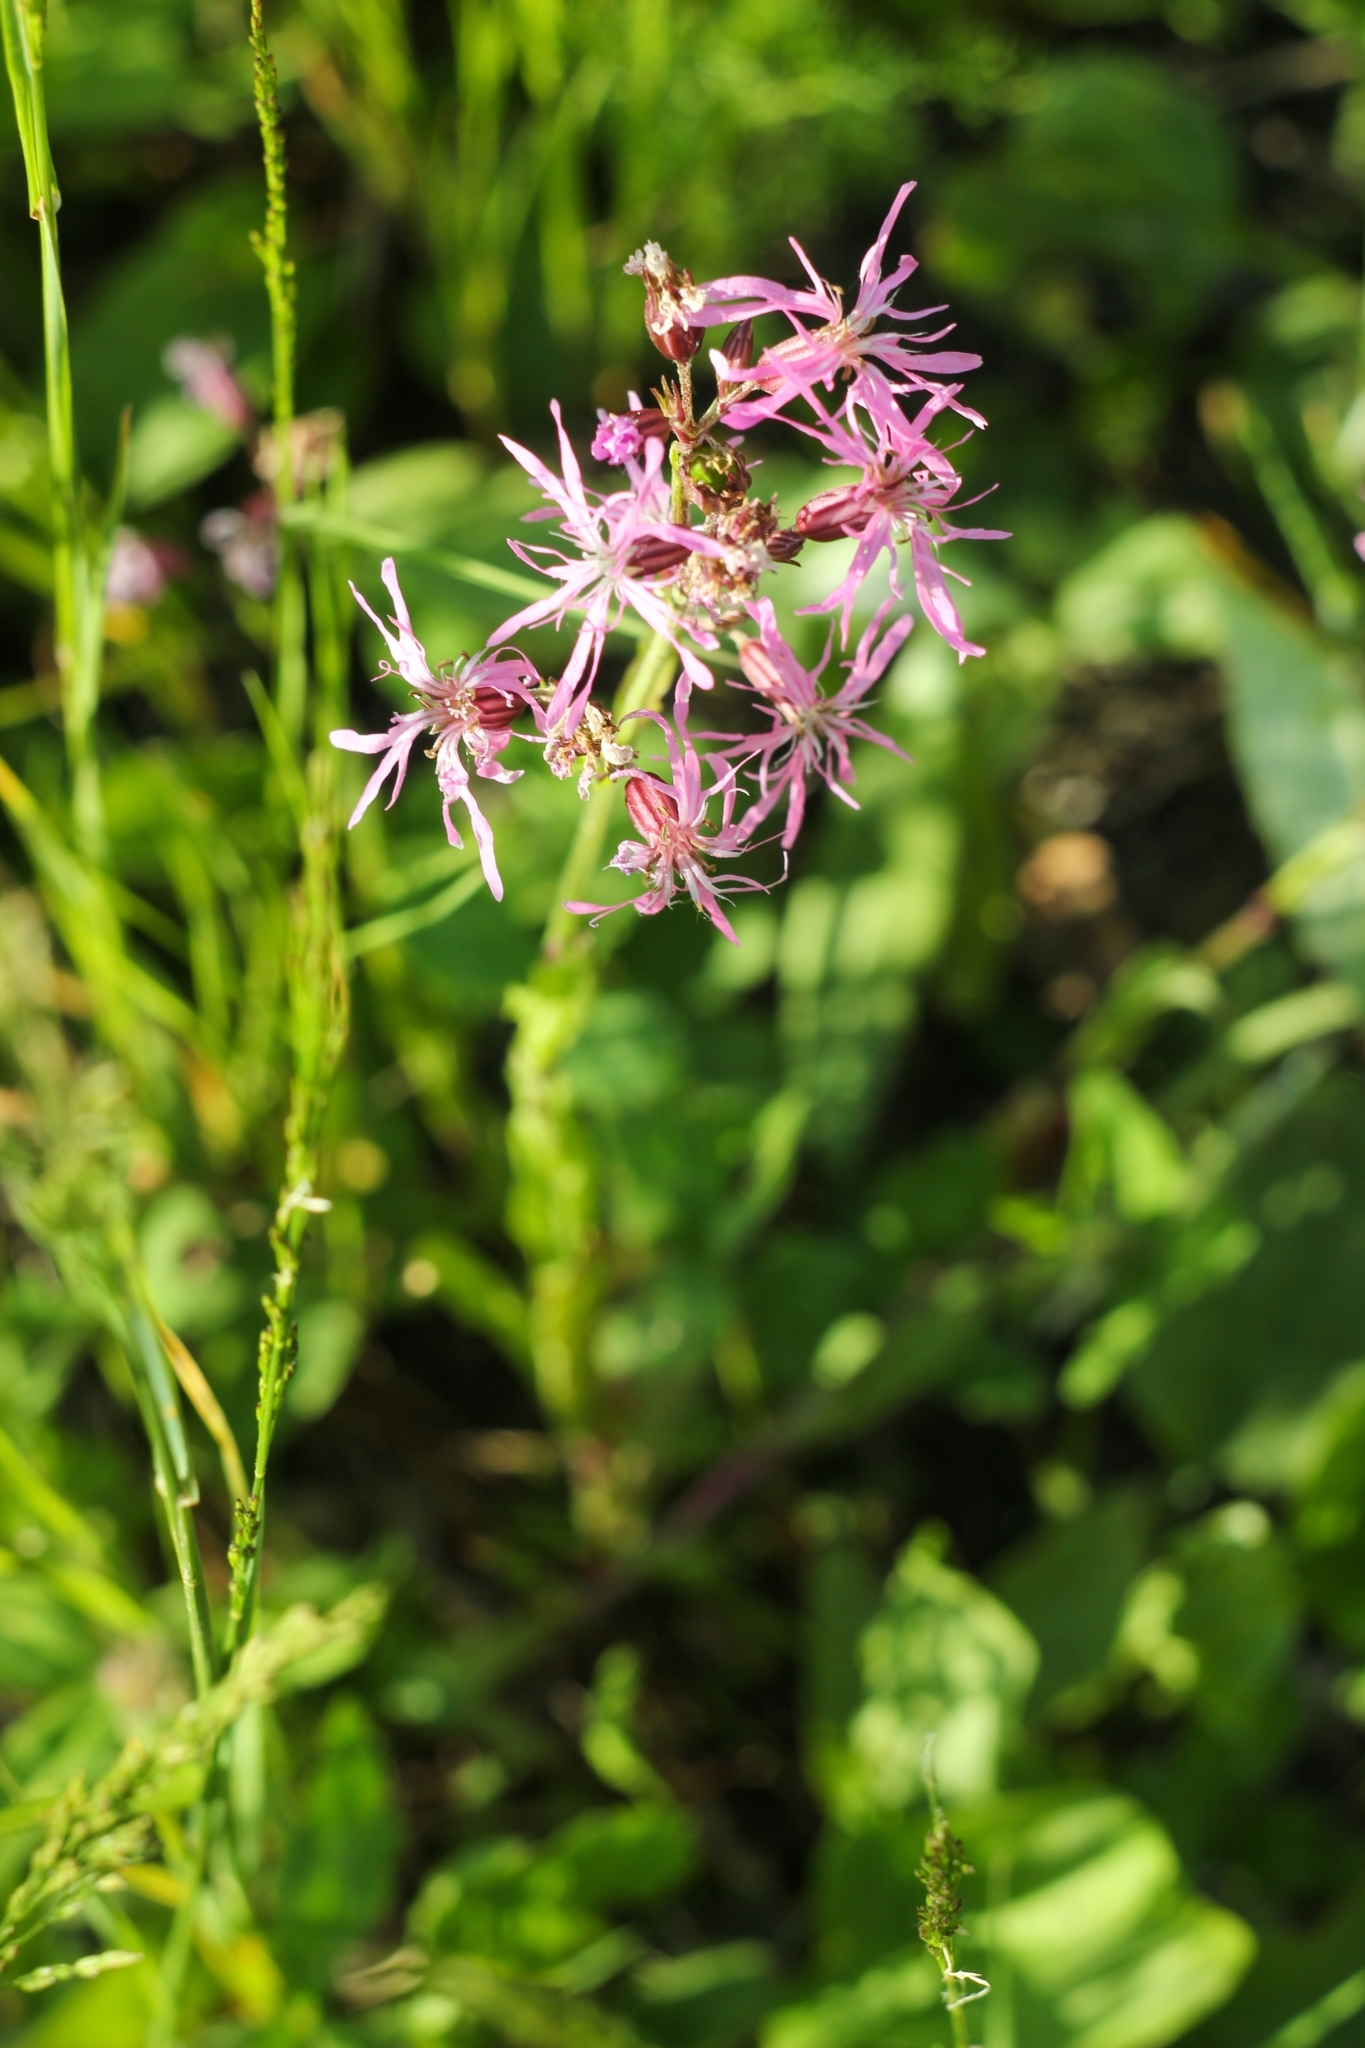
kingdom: Plantae
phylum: Tracheophyta
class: Magnoliopsida
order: Caryophyllales
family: Caryophyllaceae
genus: Silene
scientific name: Silene flos-cuculi
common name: Ragged-robin
